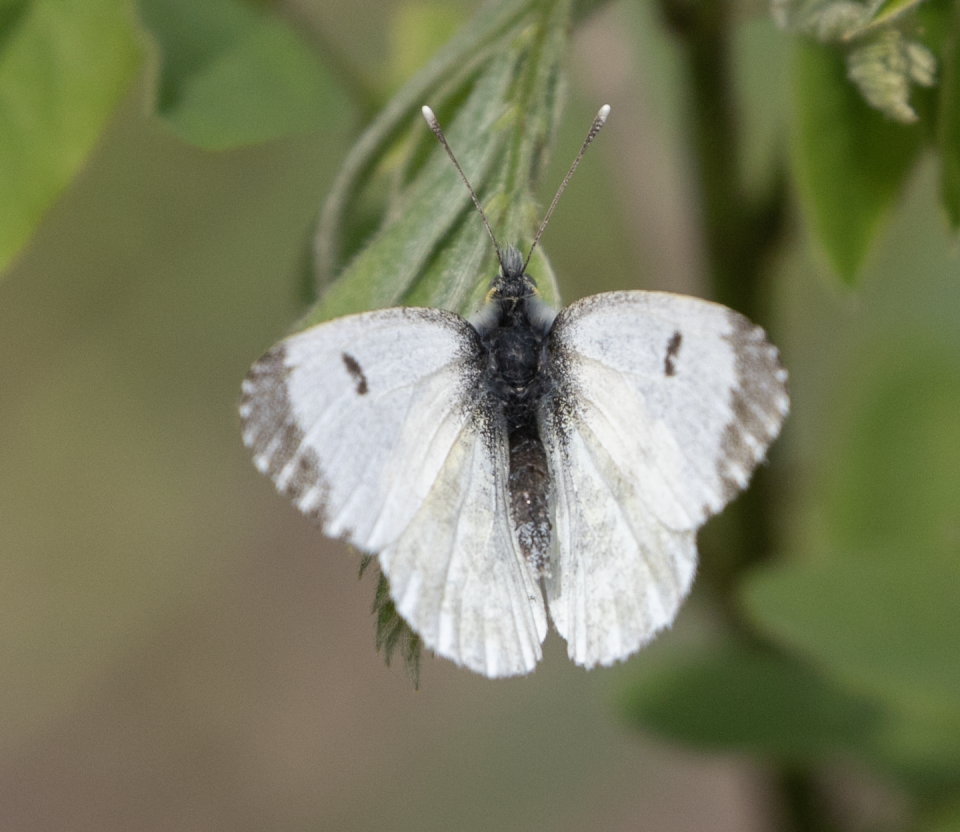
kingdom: Animalia
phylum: Arthropoda
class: Insecta
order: Lepidoptera
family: Pieridae
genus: Anthocharis
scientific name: Anthocharis cardamines
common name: Orange-tip
